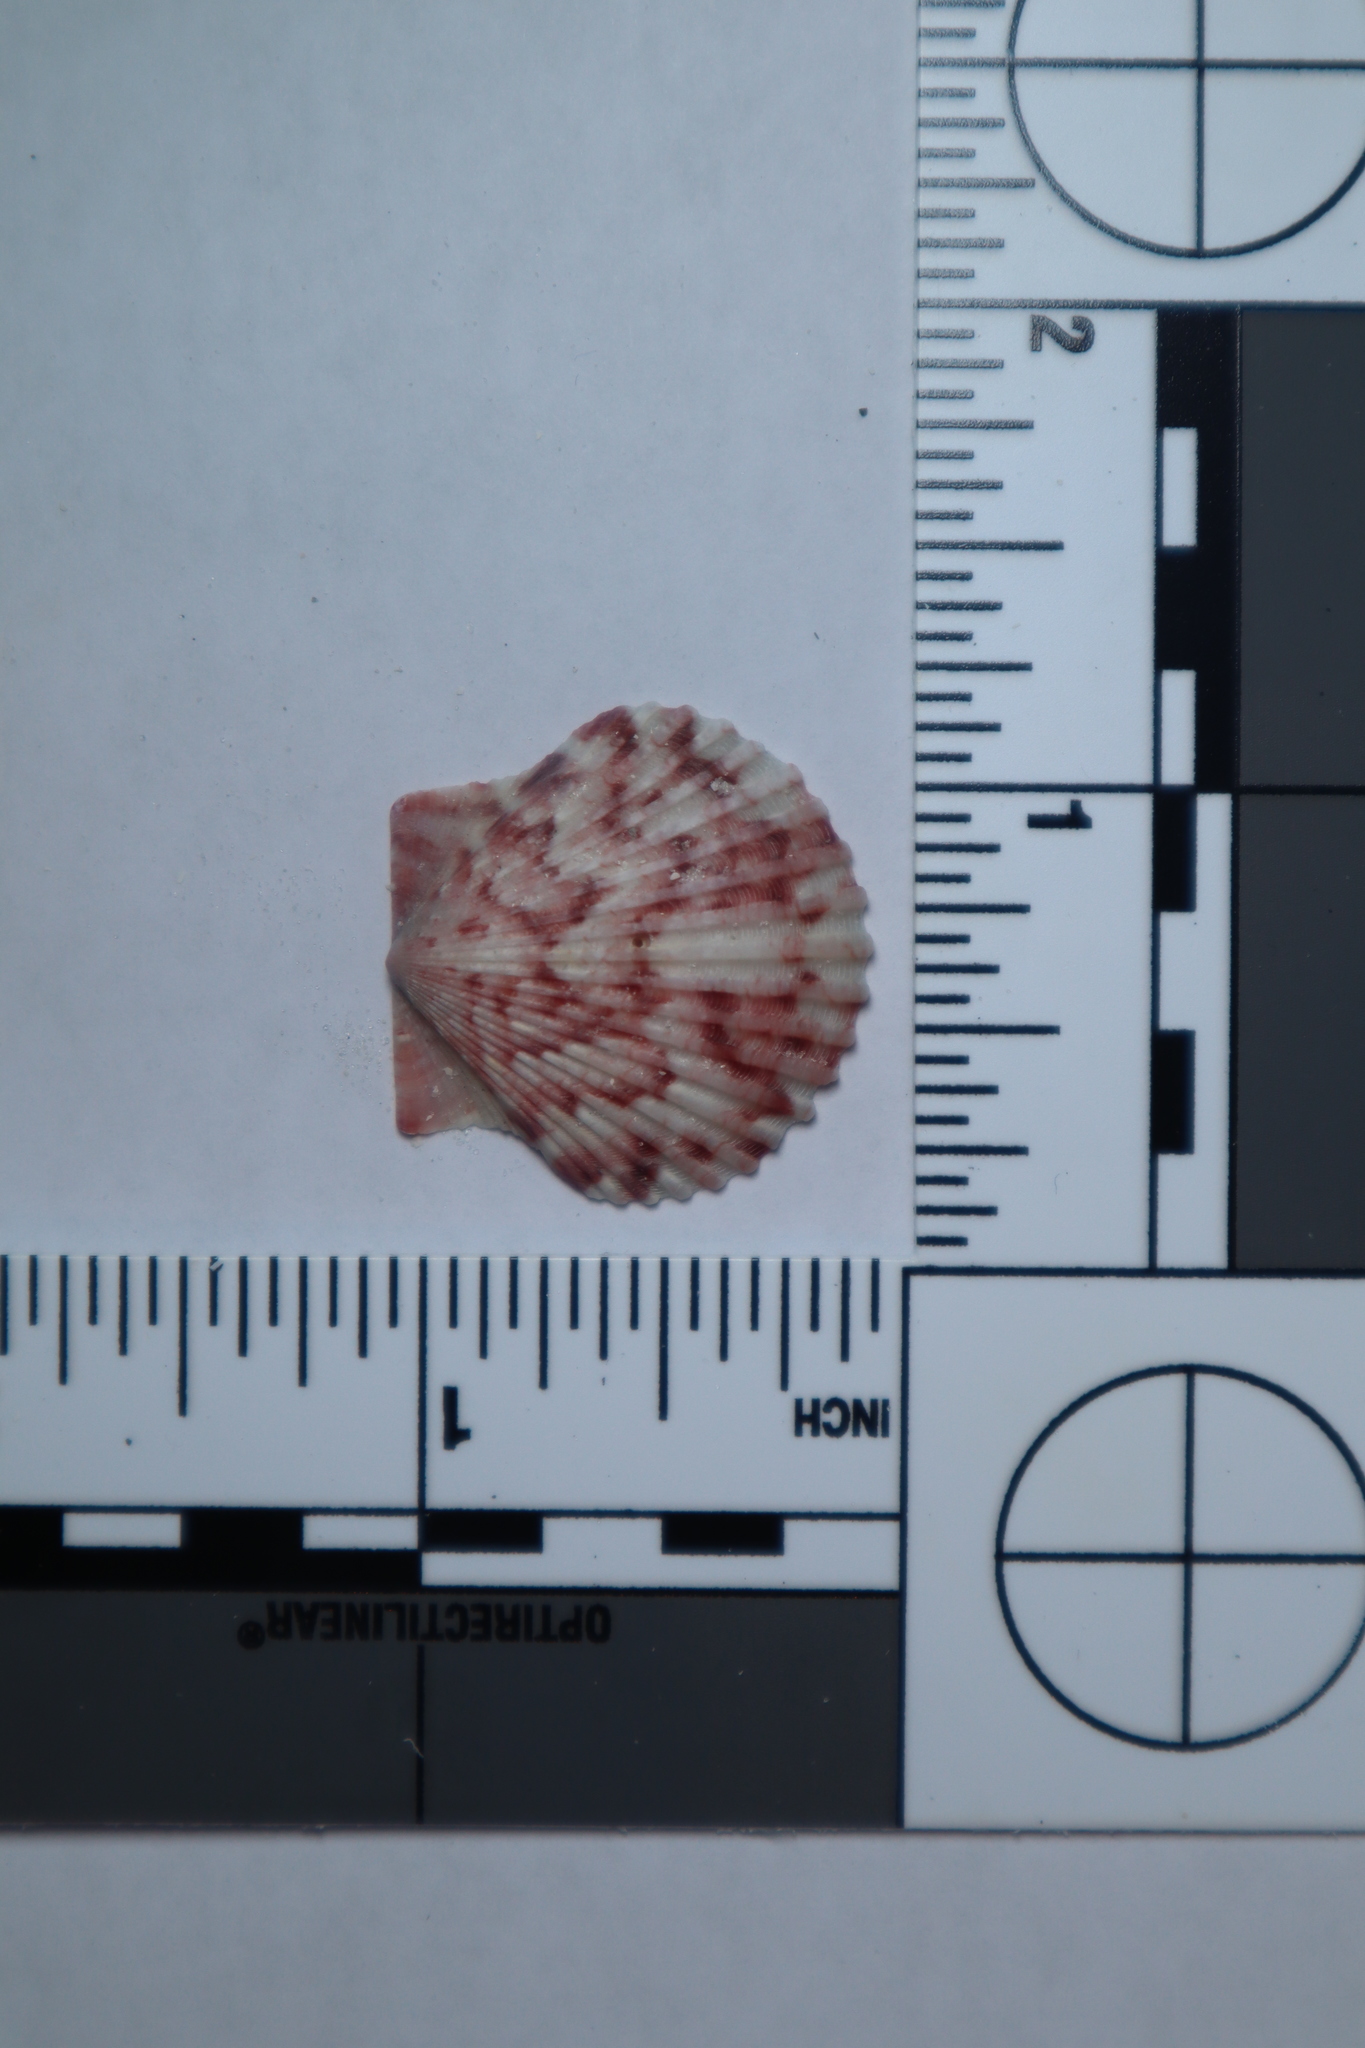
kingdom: Animalia
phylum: Mollusca
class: Bivalvia
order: Pectinida
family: Pectinidae
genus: Argopecten
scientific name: Argopecten gibbus
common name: Atlantic calico scallop
